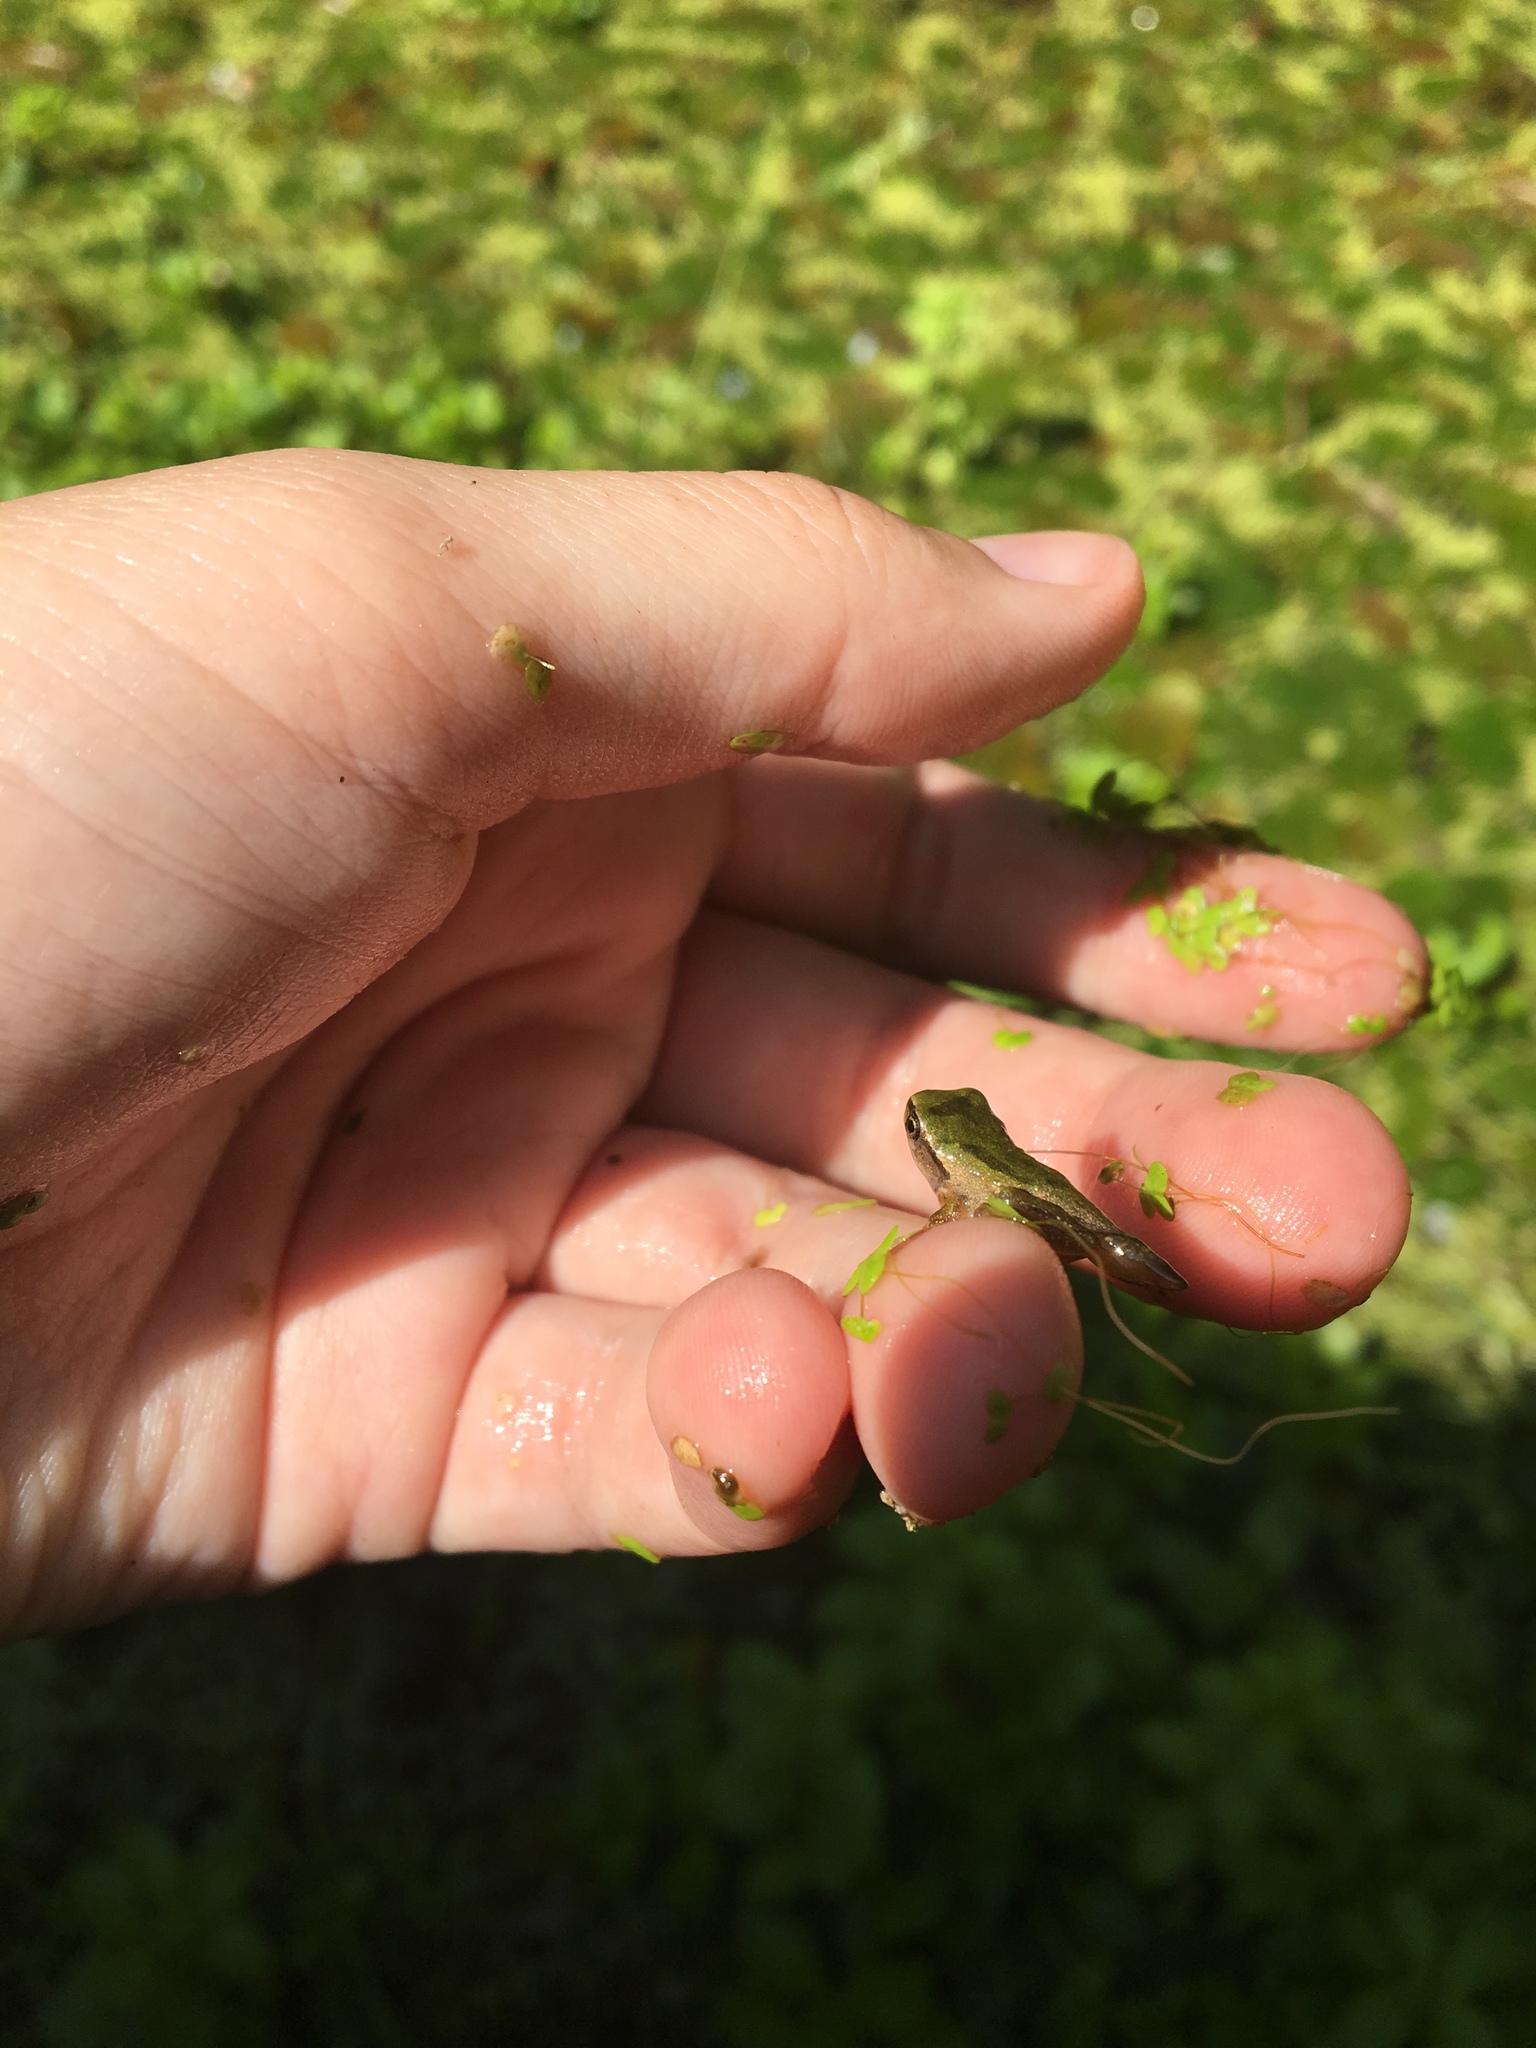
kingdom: Animalia
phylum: Chordata
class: Amphibia
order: Anura
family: Hylidae
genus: Pseudacris
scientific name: Pseudacris regilla
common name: Pacific chorus frog
